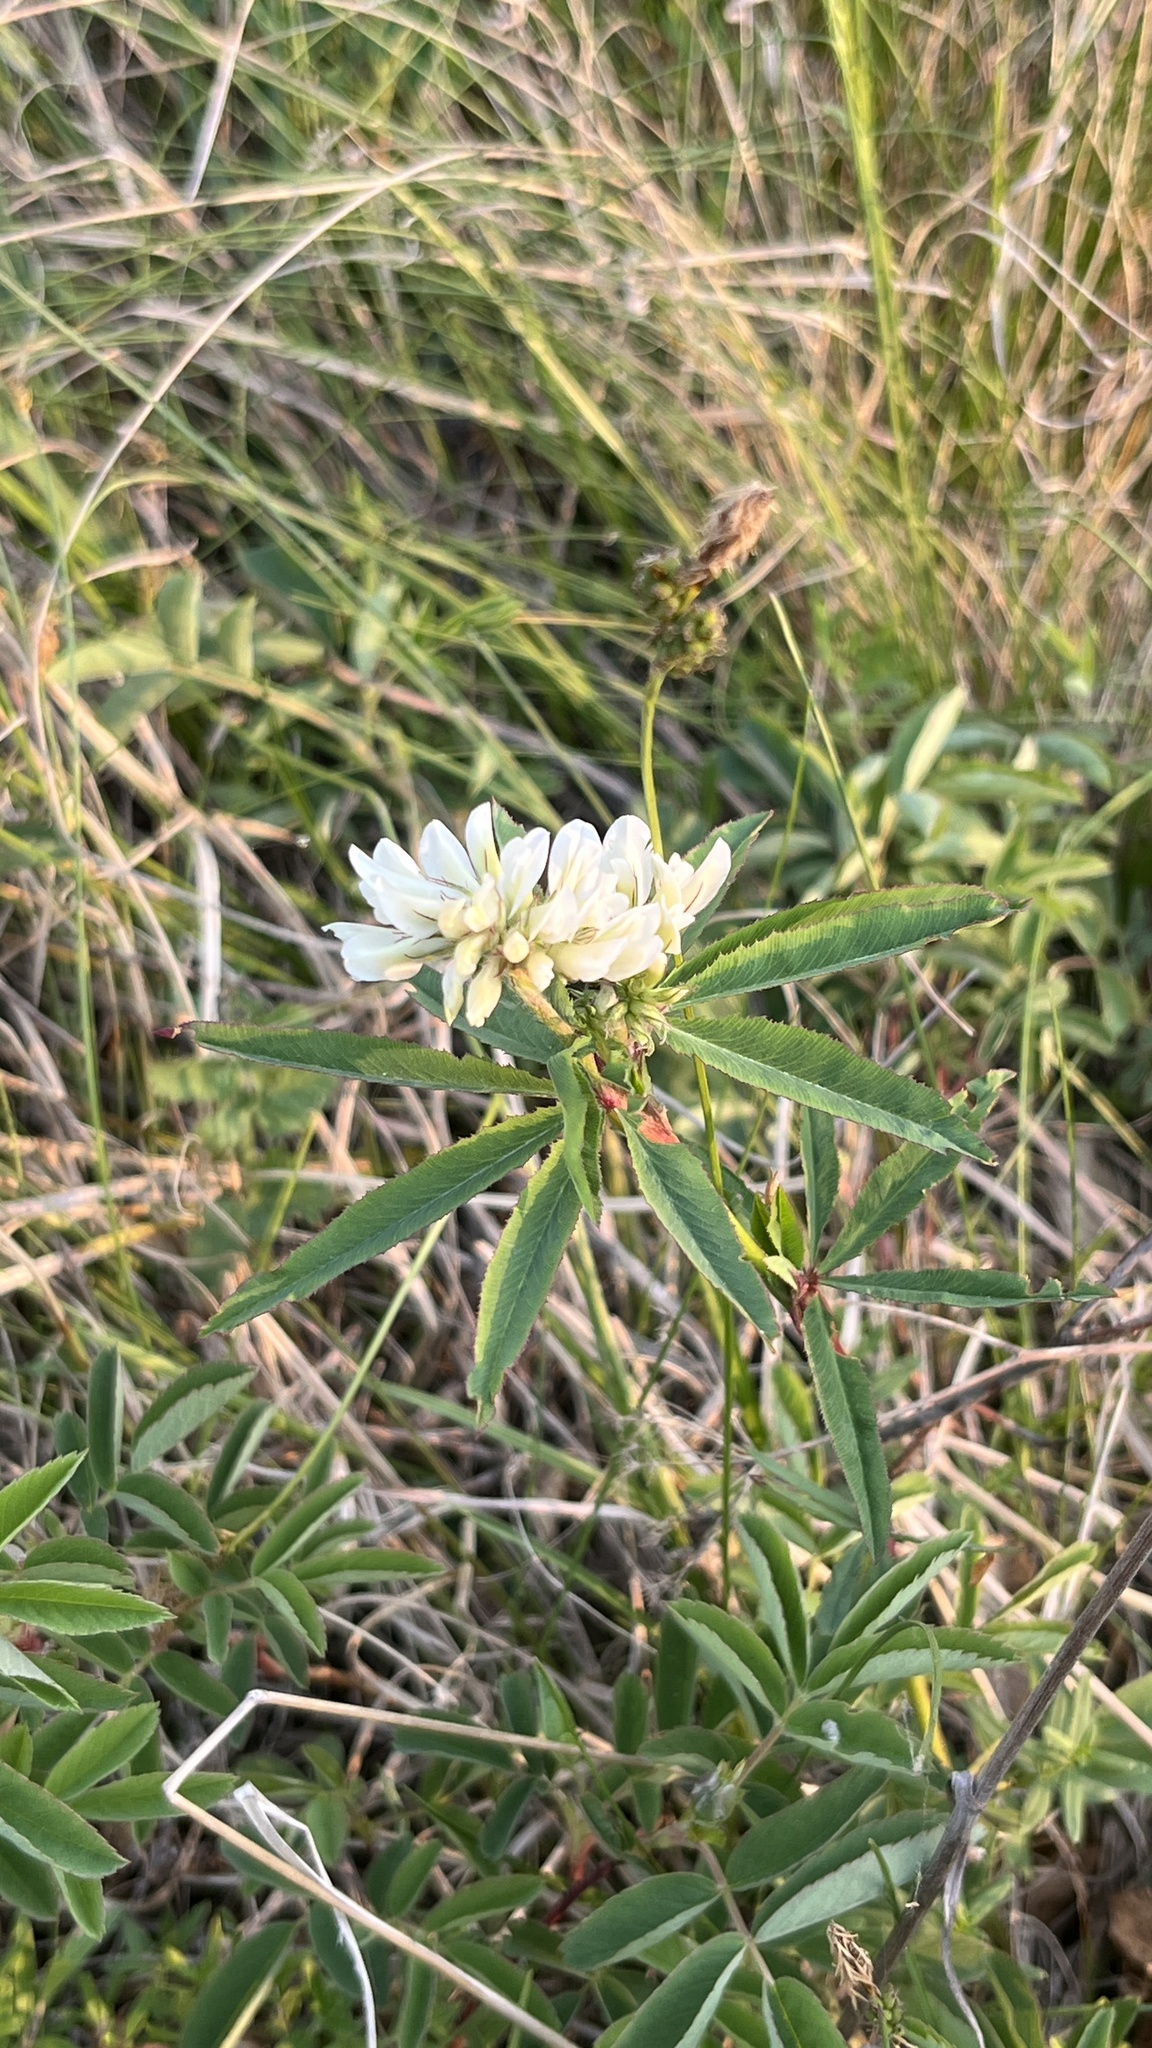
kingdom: Plantae
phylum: Tracheophyta
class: Magnoliopsida
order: Fabales
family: Fabaceae
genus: Trifolium
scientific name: Trifolium lupinaster
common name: Lupine clover
